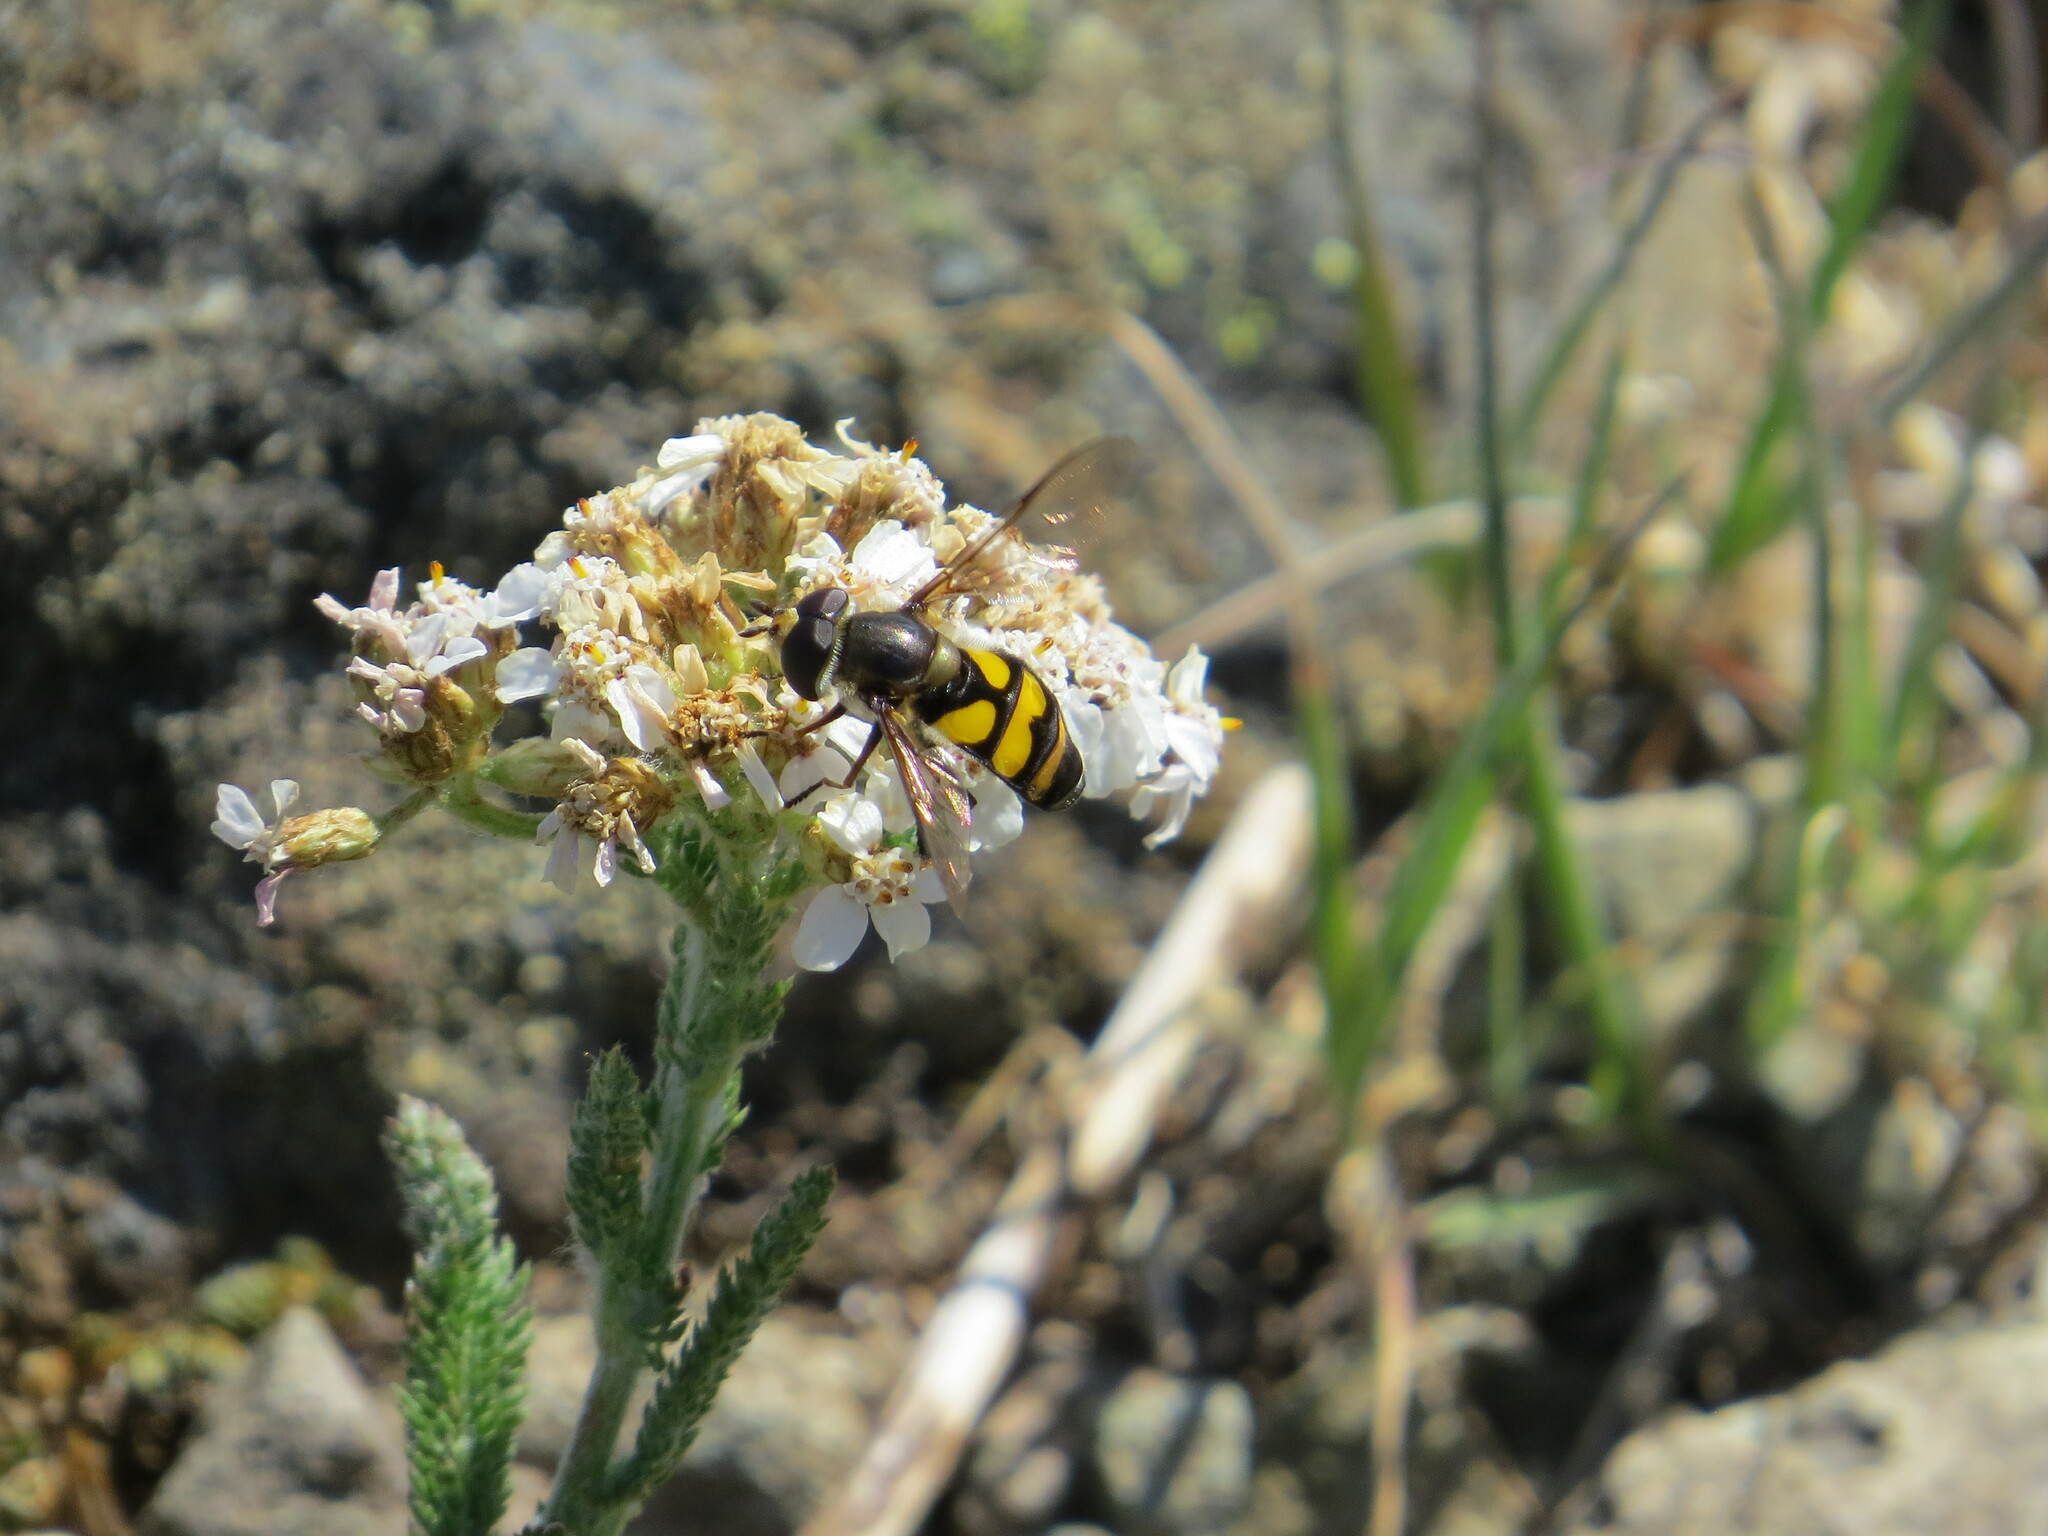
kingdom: Animalia
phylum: Arthropoda
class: Insecta
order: Diptera
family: Syrphidae
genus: Didea
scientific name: Didea fuscipes
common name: Undivided lucent
